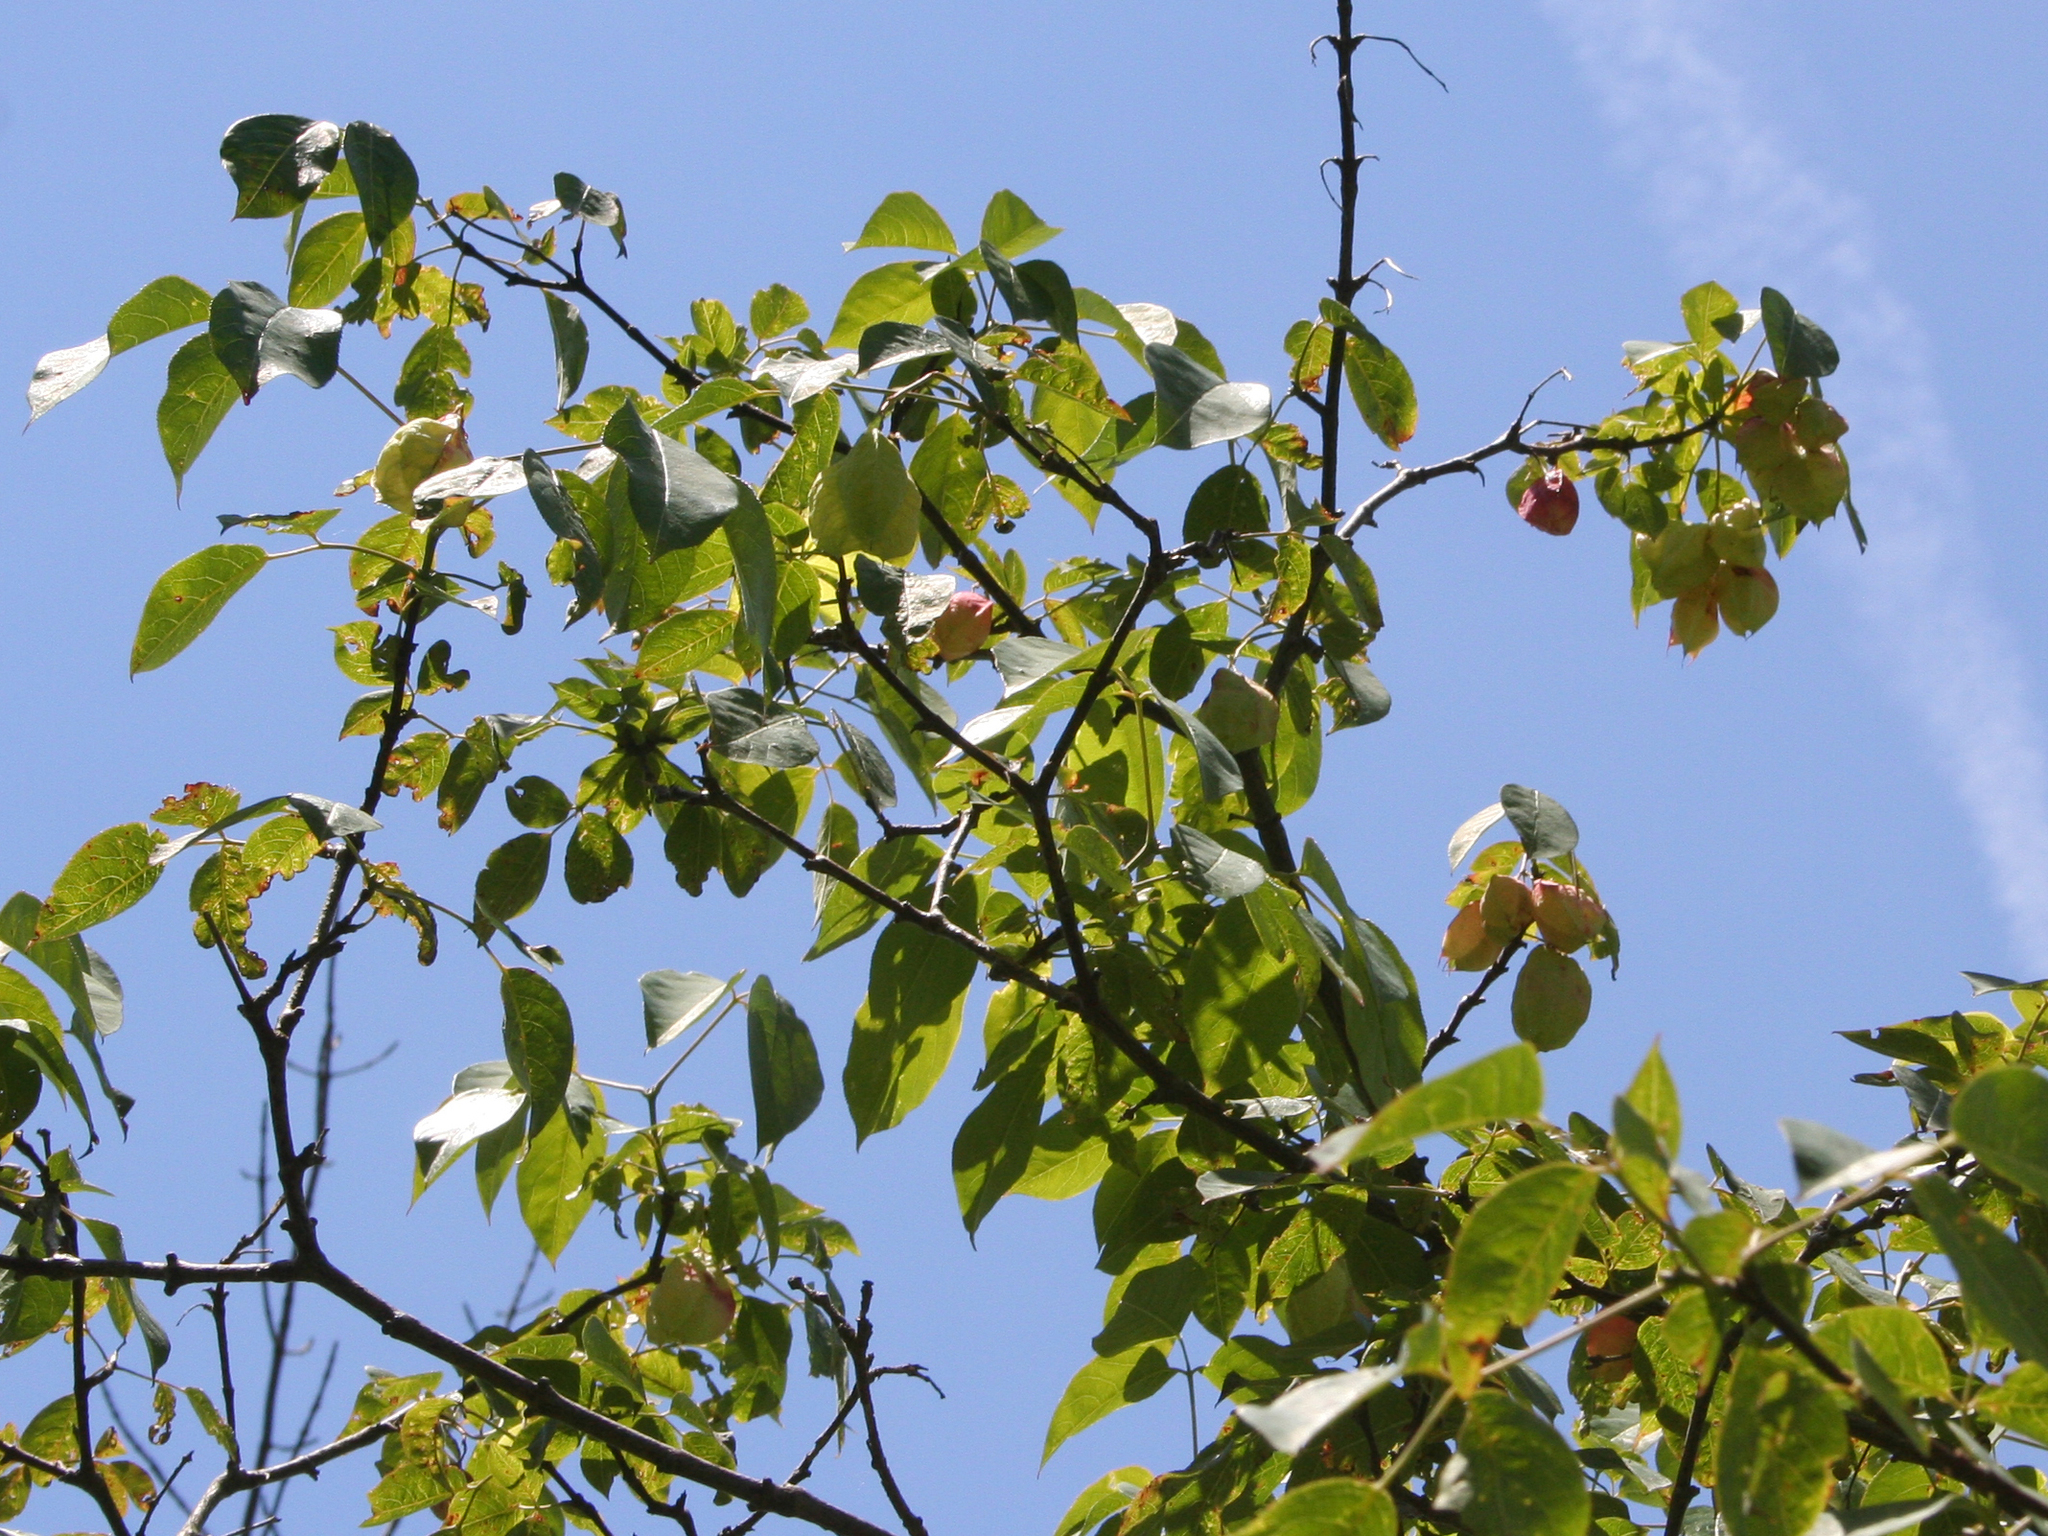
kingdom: Plantae
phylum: Tracheophyta
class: Magnoliopsida
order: Crossosomatales
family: Staphyleaceae
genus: Staphylea
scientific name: Staphylea trifolia
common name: American bladdernut
